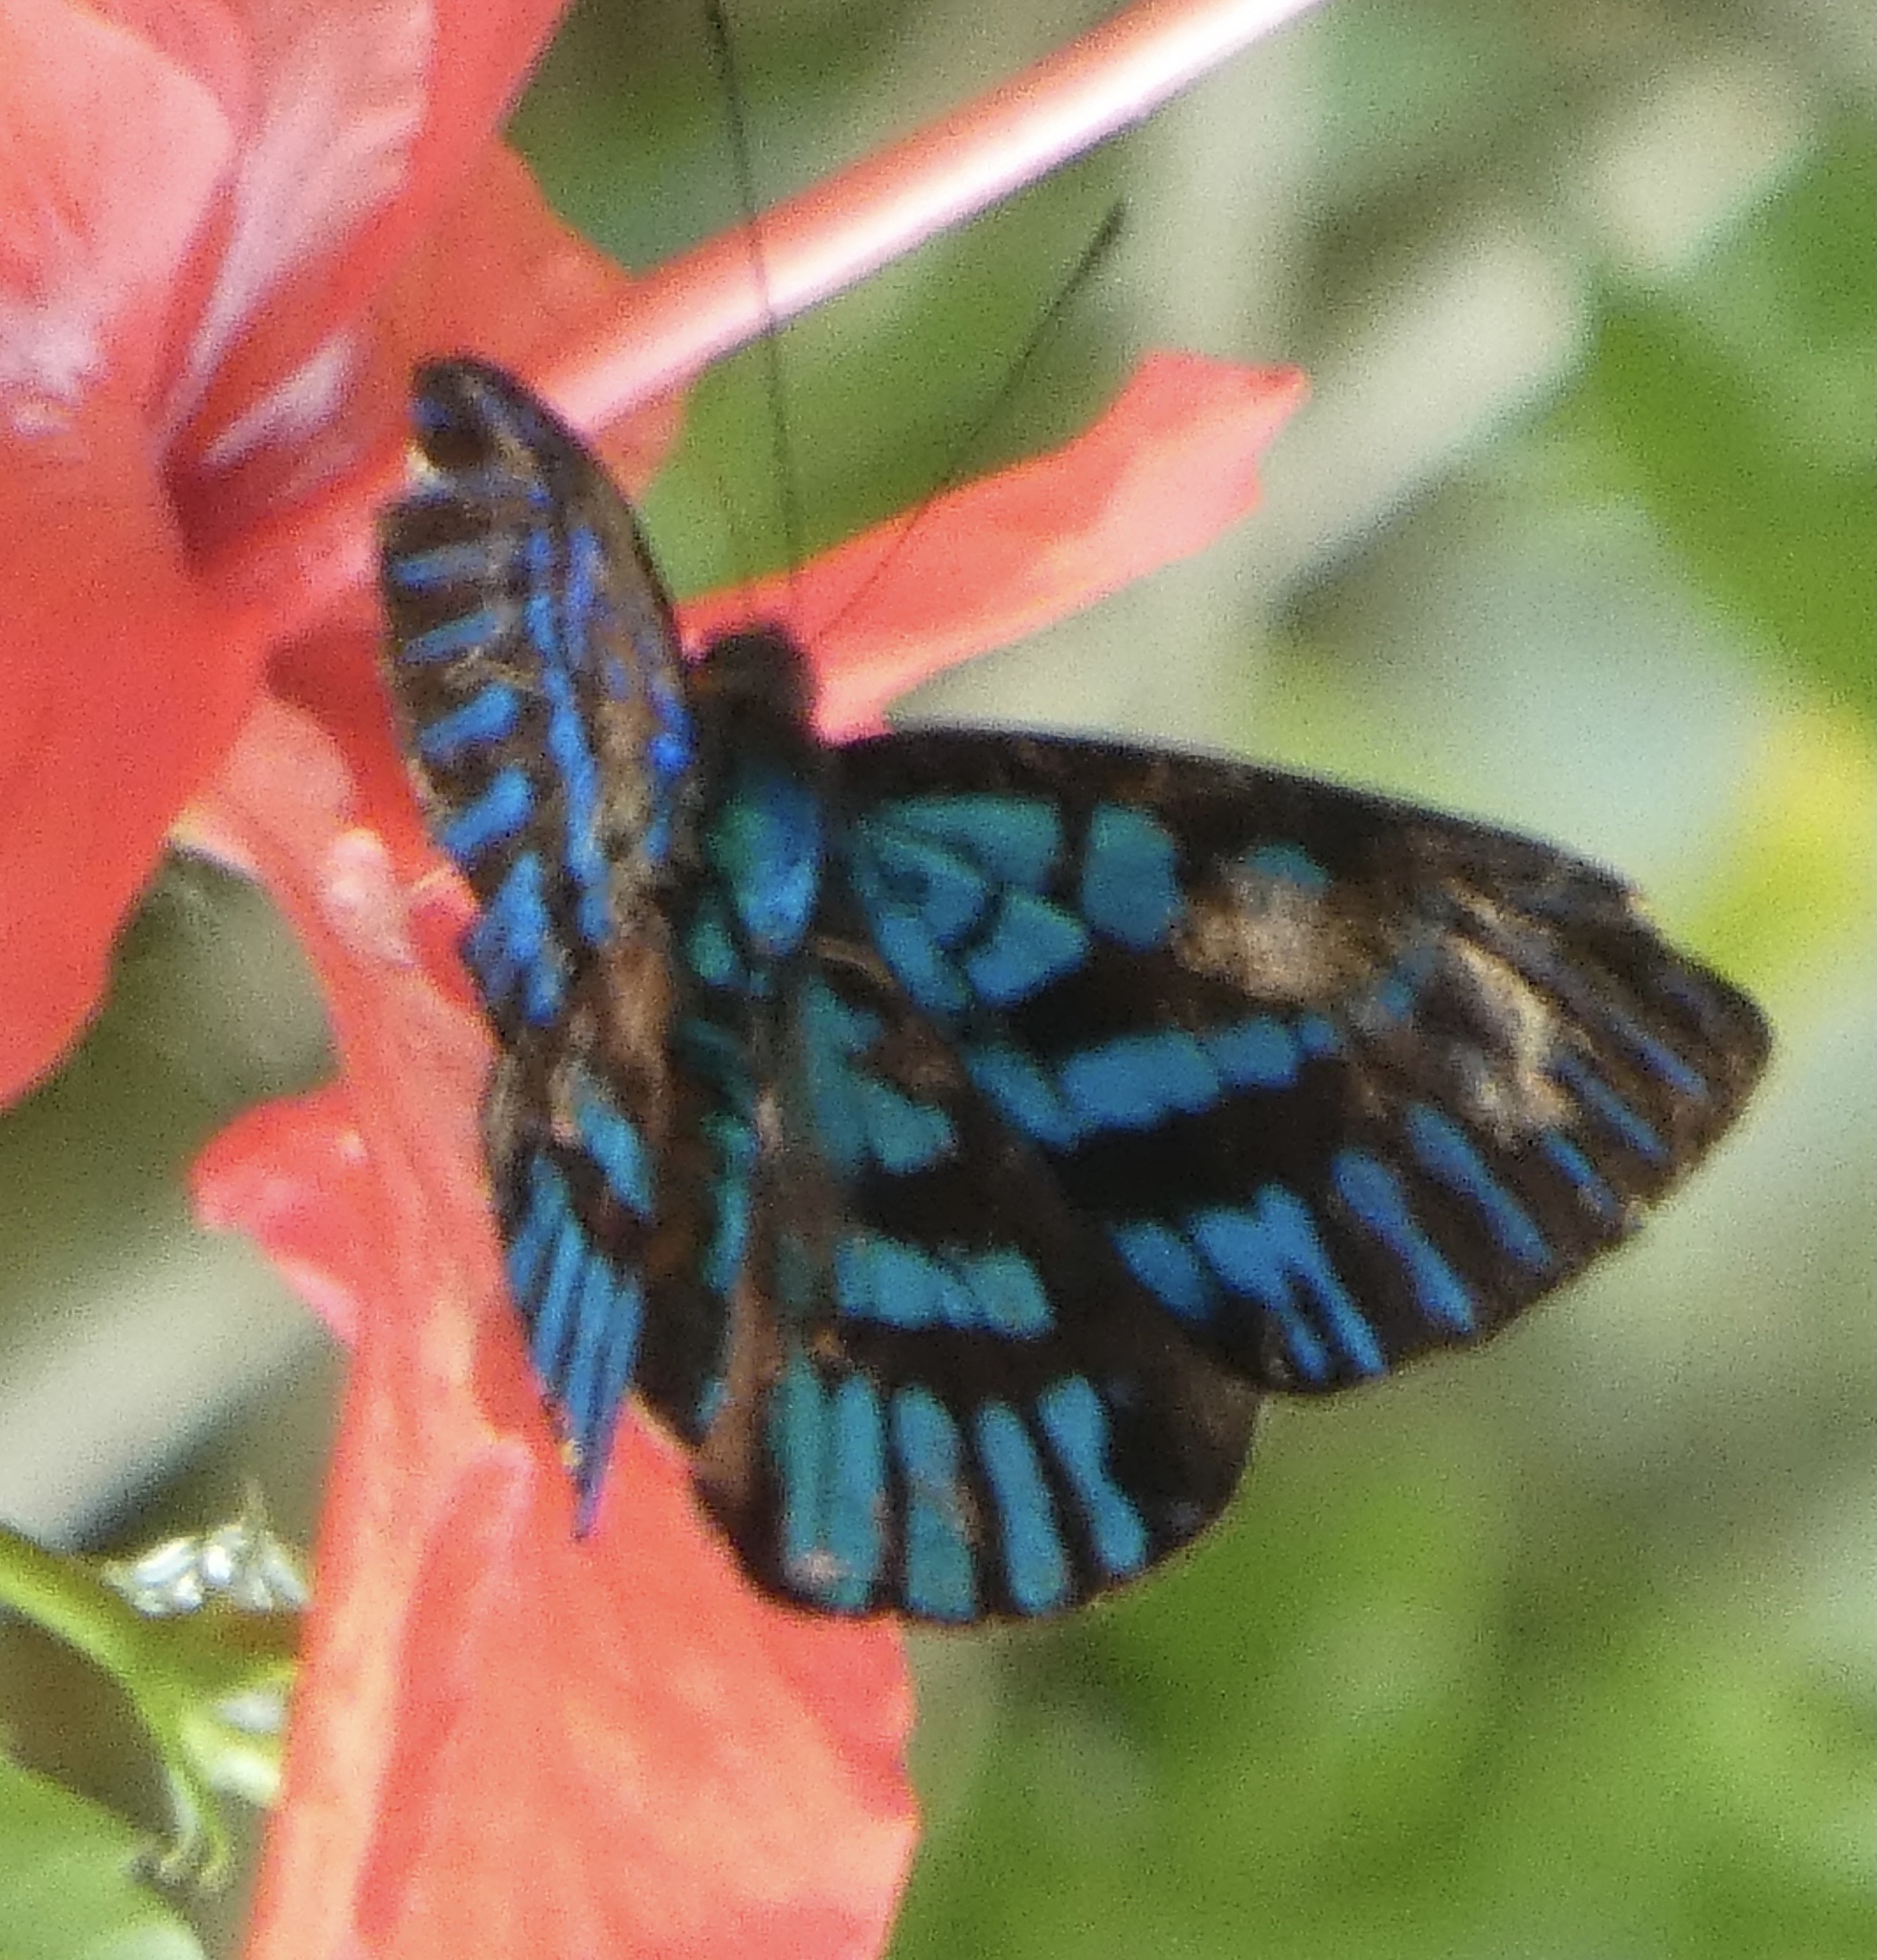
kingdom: Animalia
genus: Alesa
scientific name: Alesa prema
